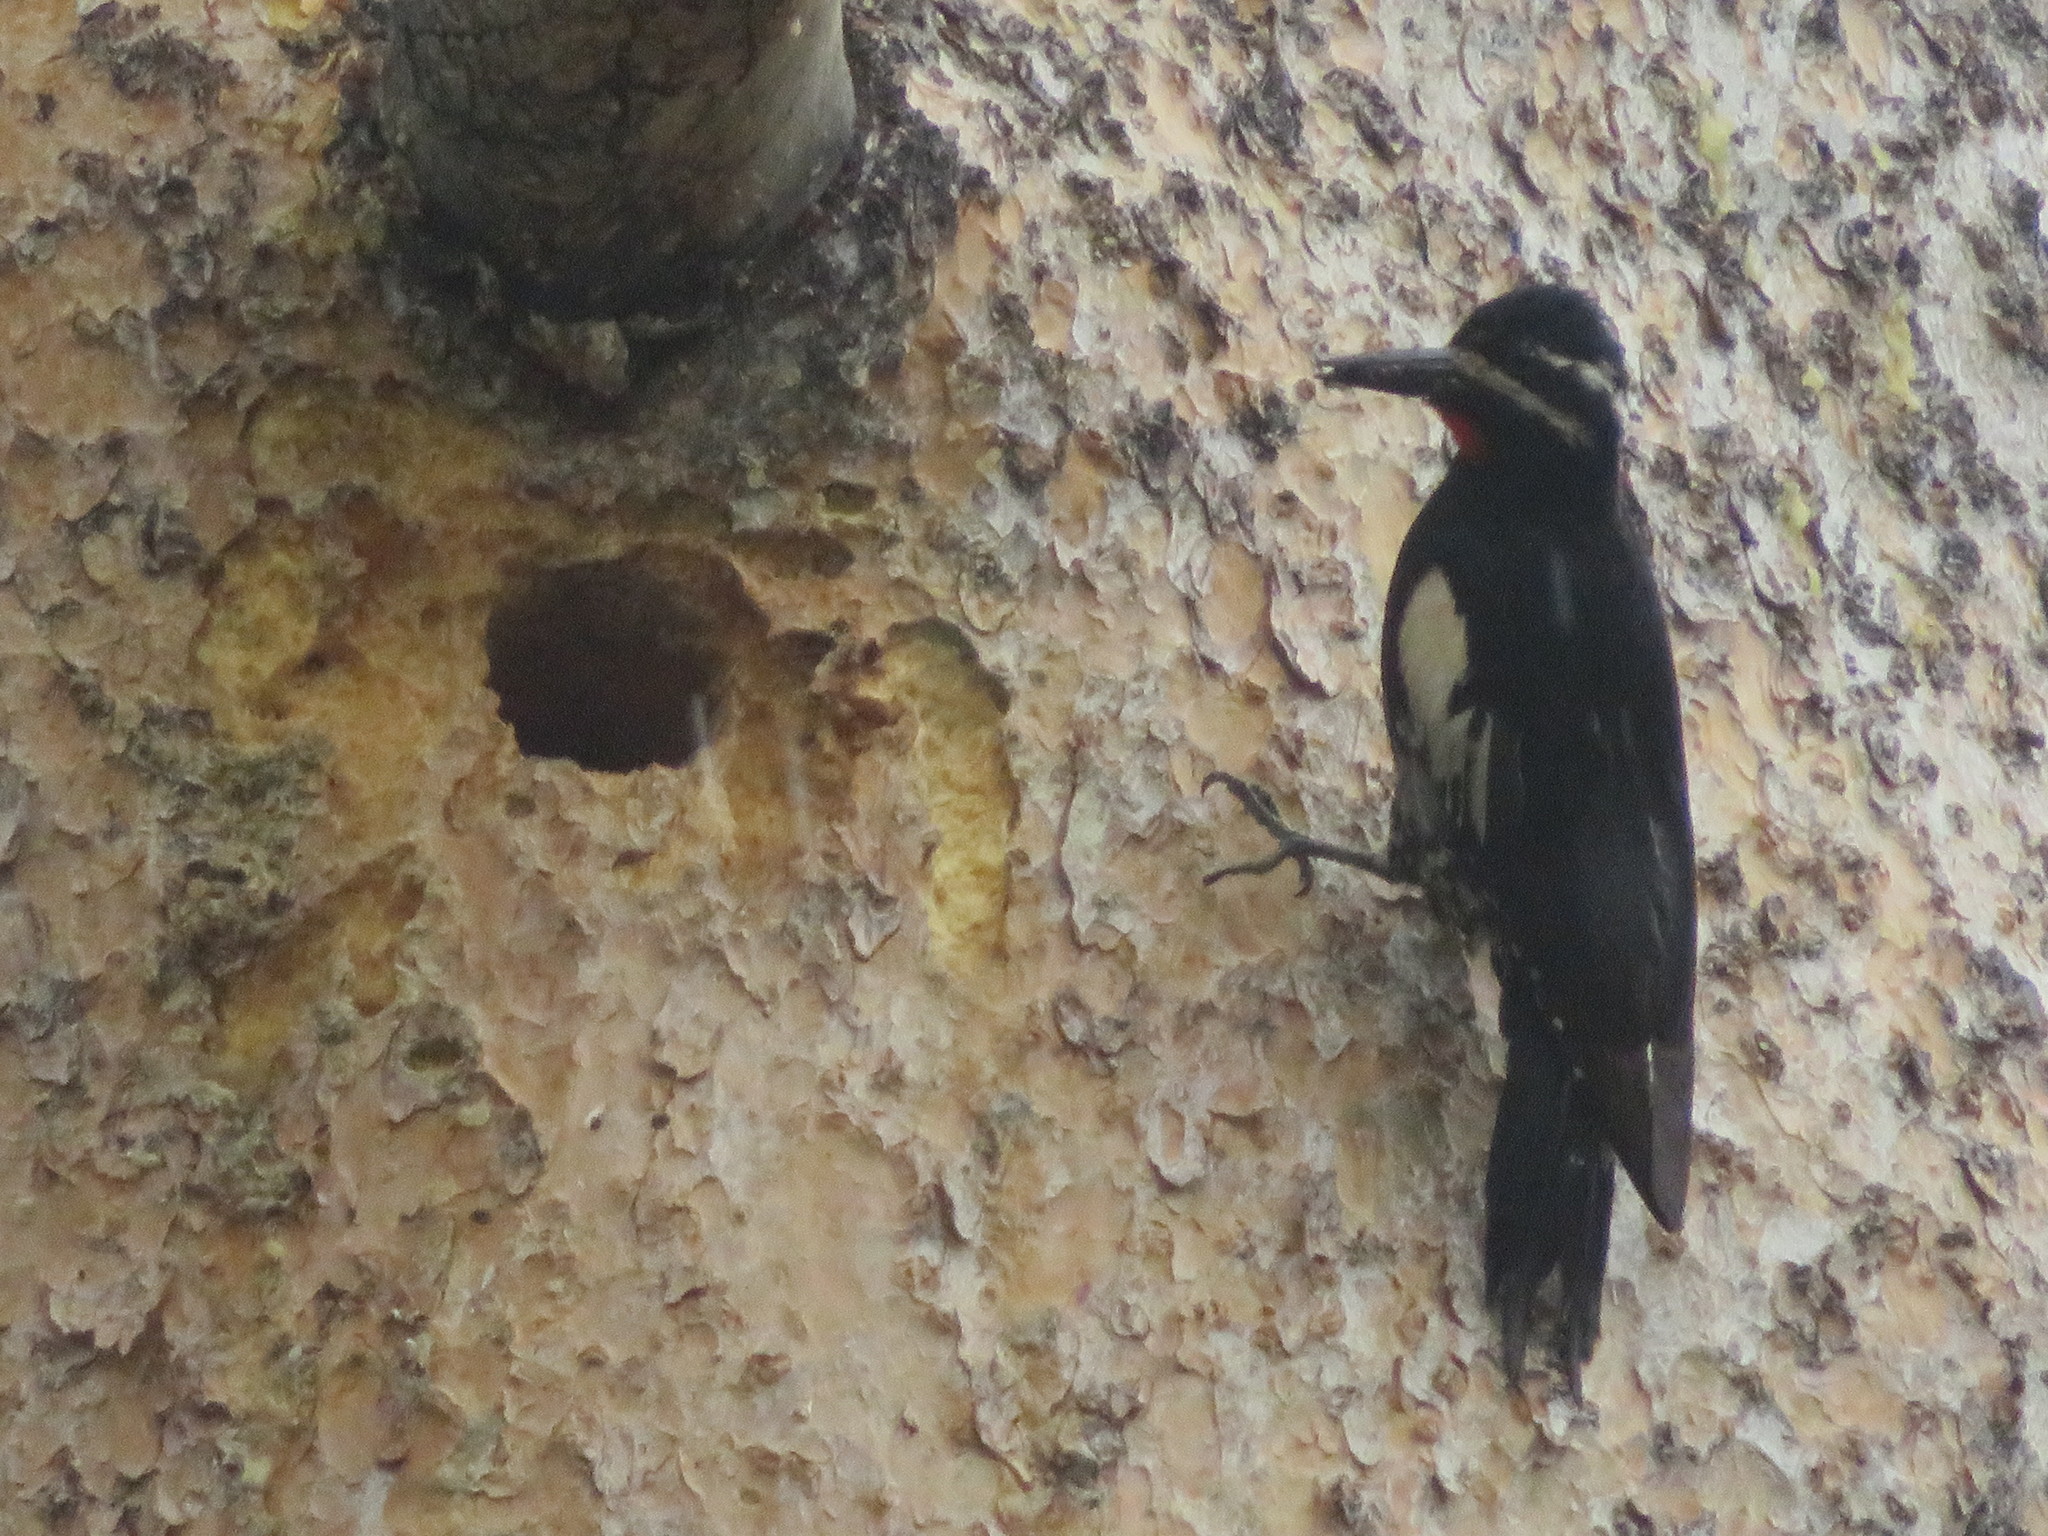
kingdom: Animalia
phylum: Chordata
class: Aves
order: Piciformes
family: Picidae
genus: Sphyrapicus
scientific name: Sphyrapicus thyroideus
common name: Williamson's sapsucker
